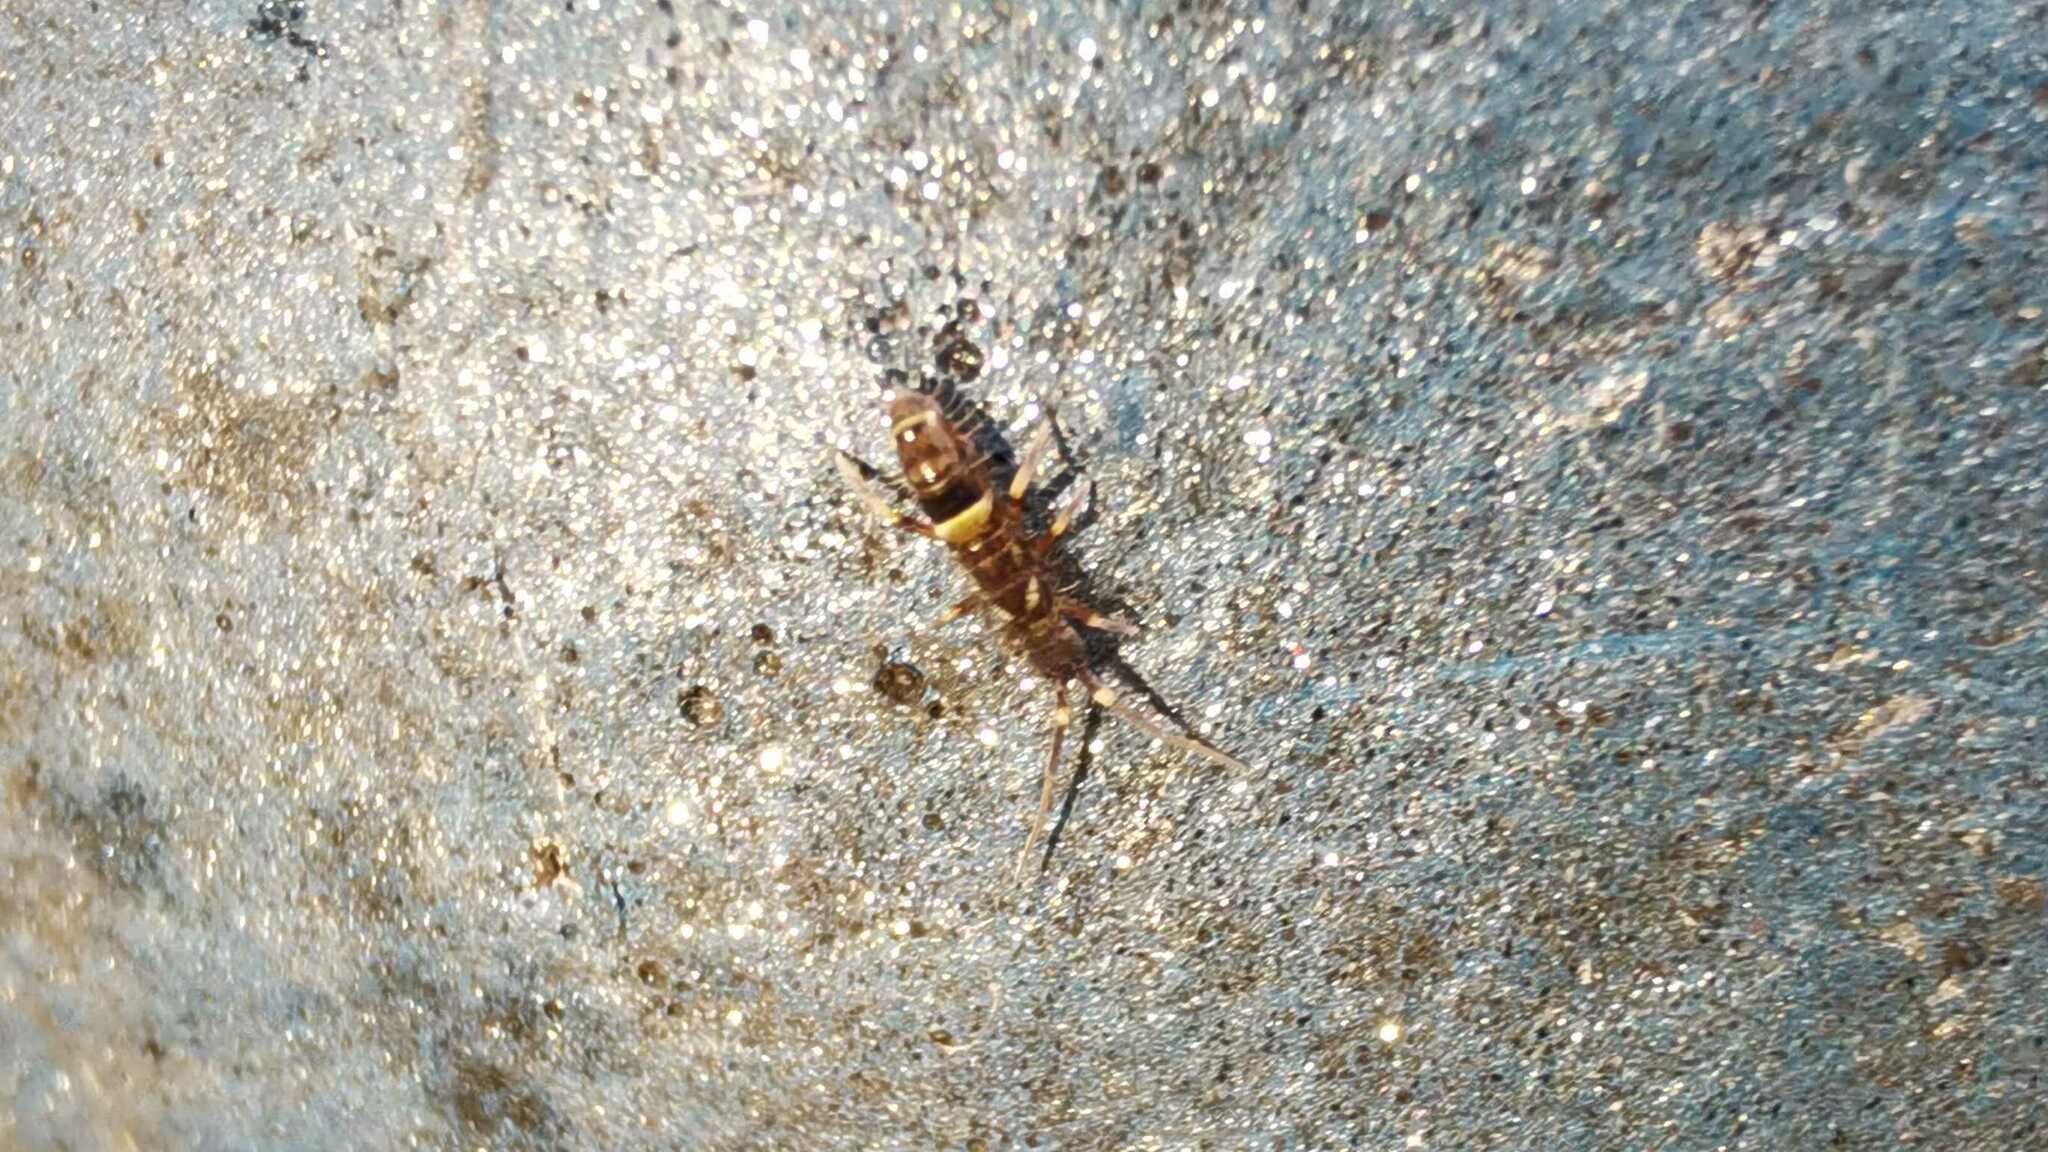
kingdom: Animalia
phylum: Arthropoda
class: Collembola
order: Entomobryomorpha
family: Orchesellidae
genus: Orchesella
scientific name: Orchesella cincta
